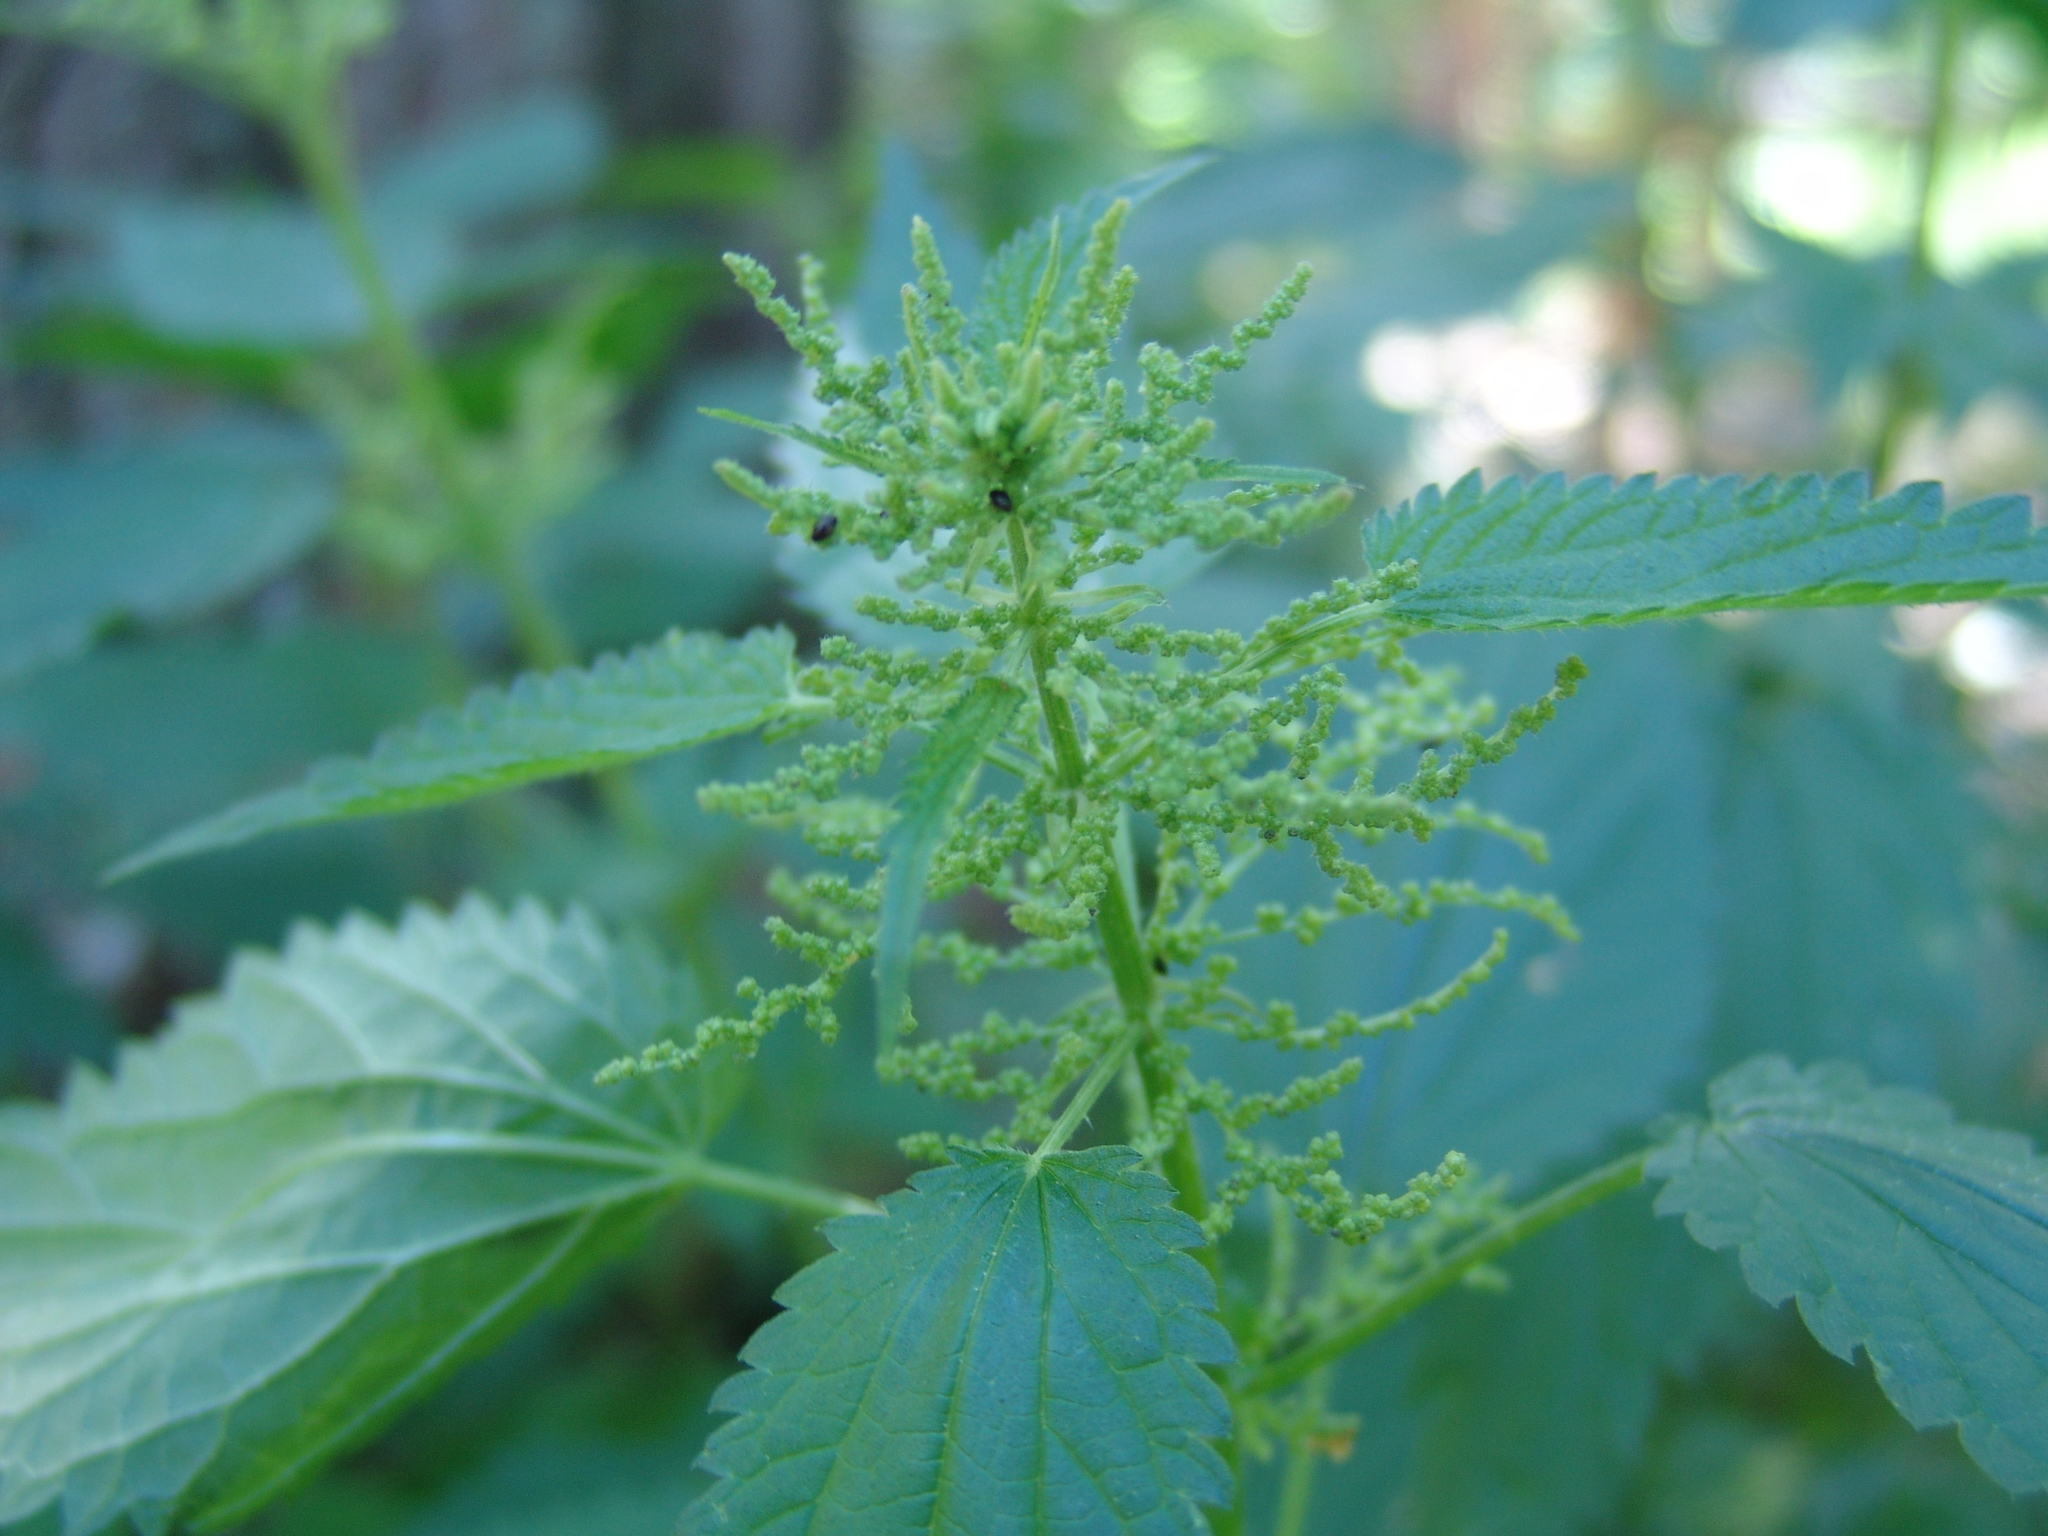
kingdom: Plantae
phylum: Tracheophyta
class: Magnoliopsida
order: Rosales
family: Urticaceae
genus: Urtica
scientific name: Urtica dioica
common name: Common nettle
